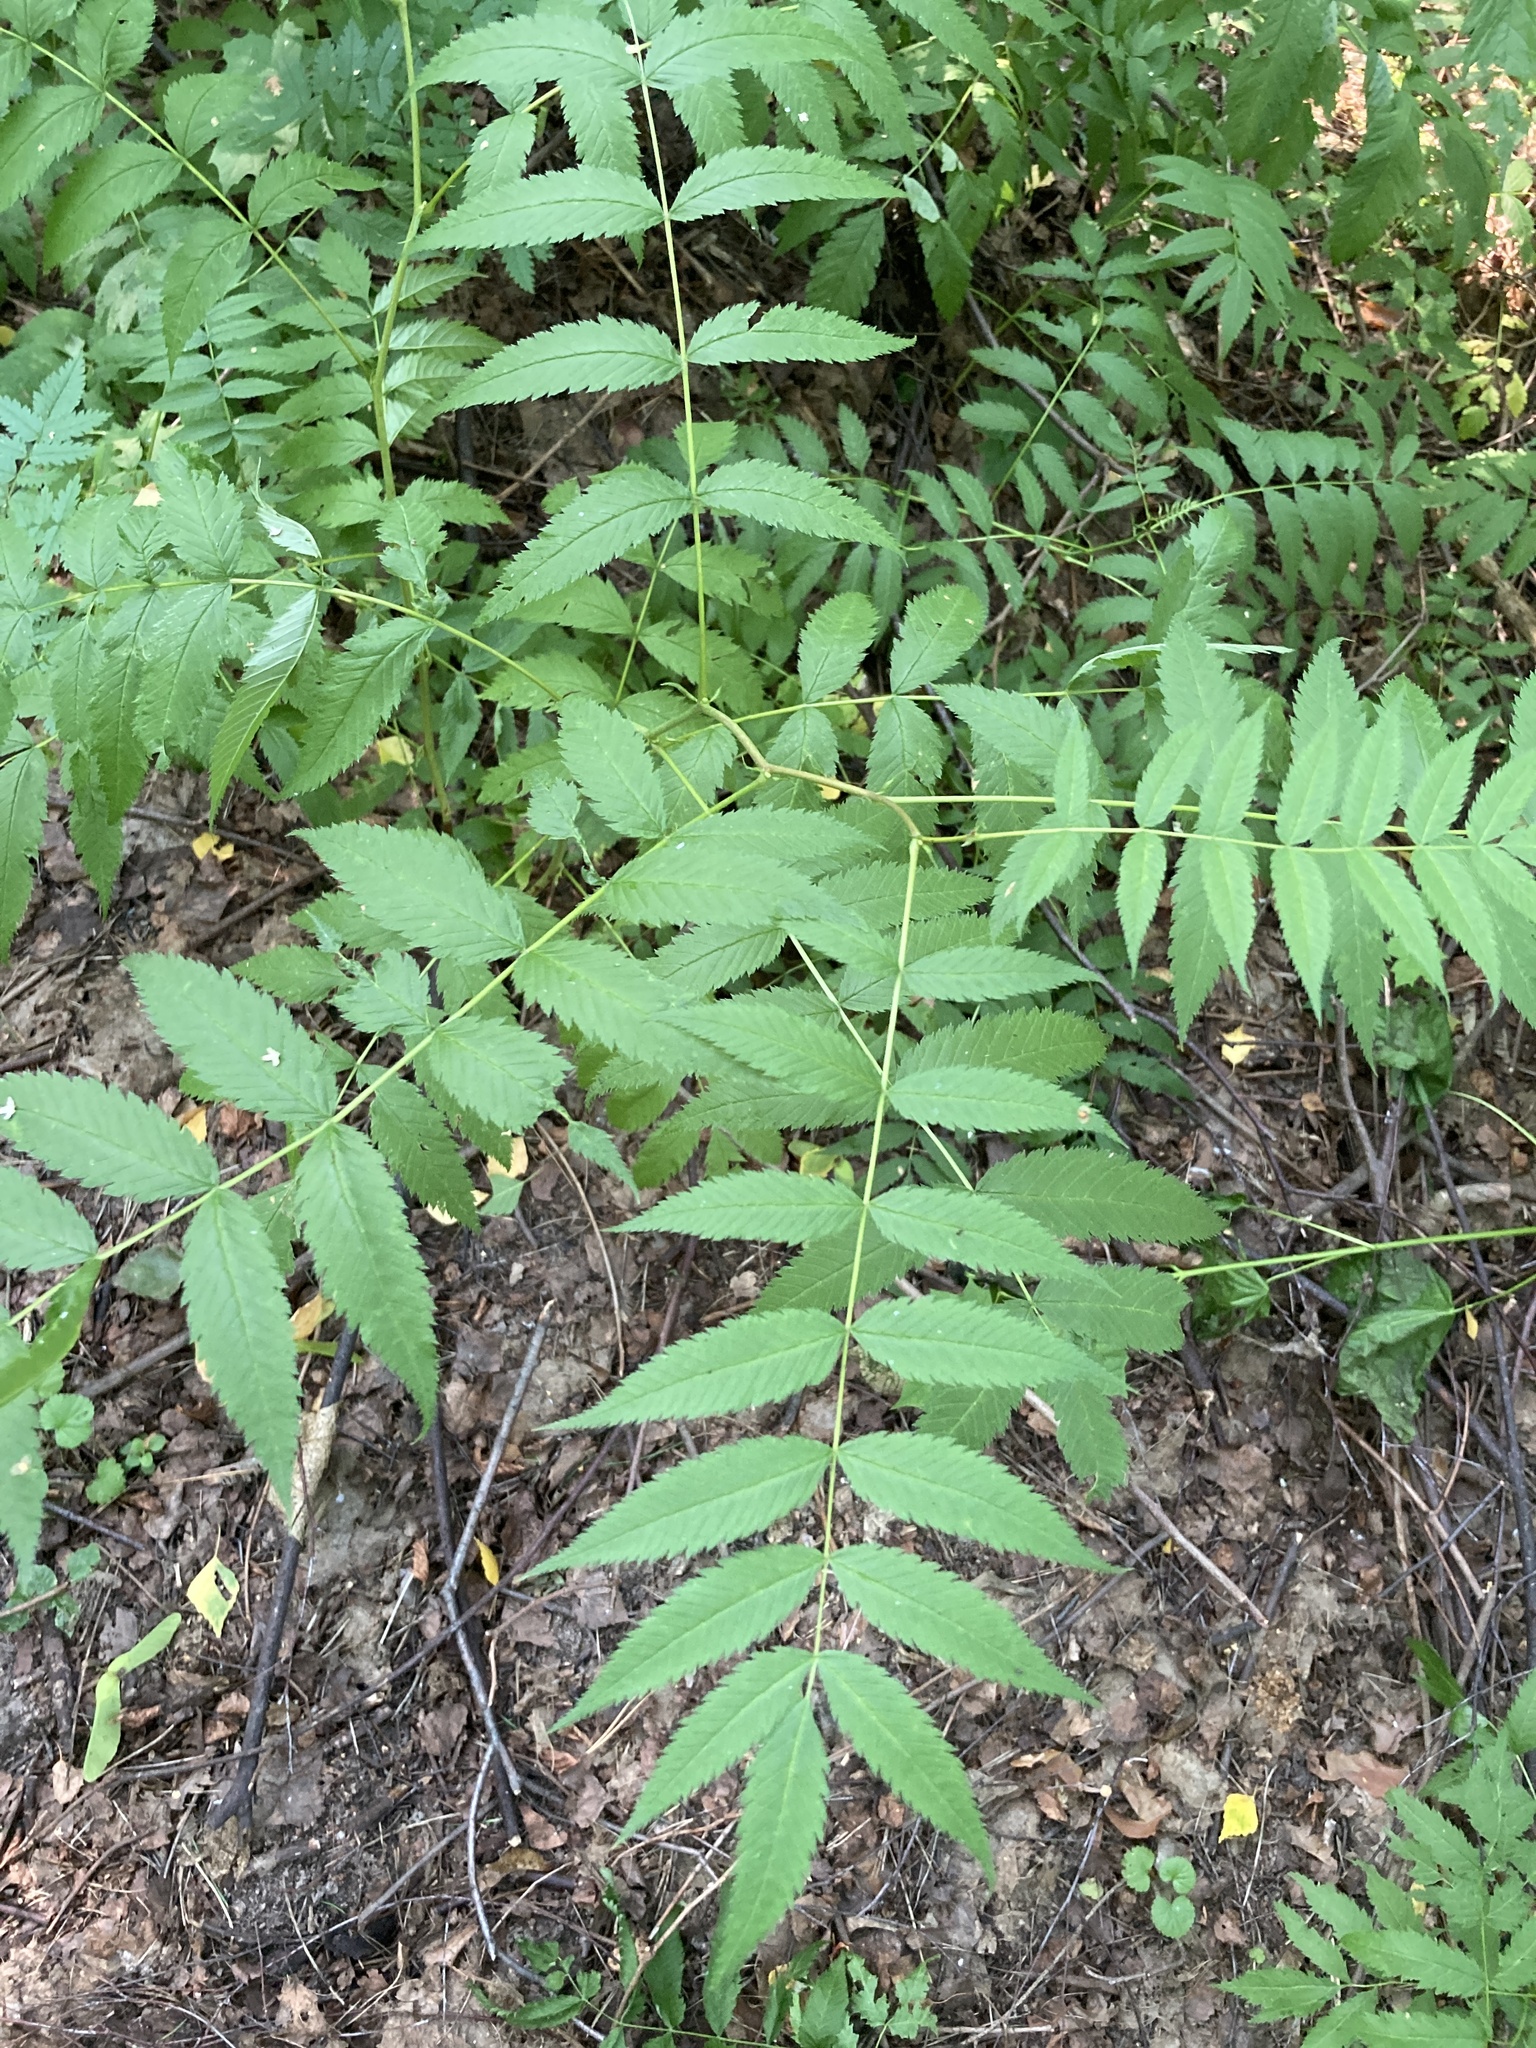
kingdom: Plantae
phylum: Tracheophyta
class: Magnoliopsida
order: Rosales
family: Rosaceae
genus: Sorbaria
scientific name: Sorbaria sorbifolia
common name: False spiraea
